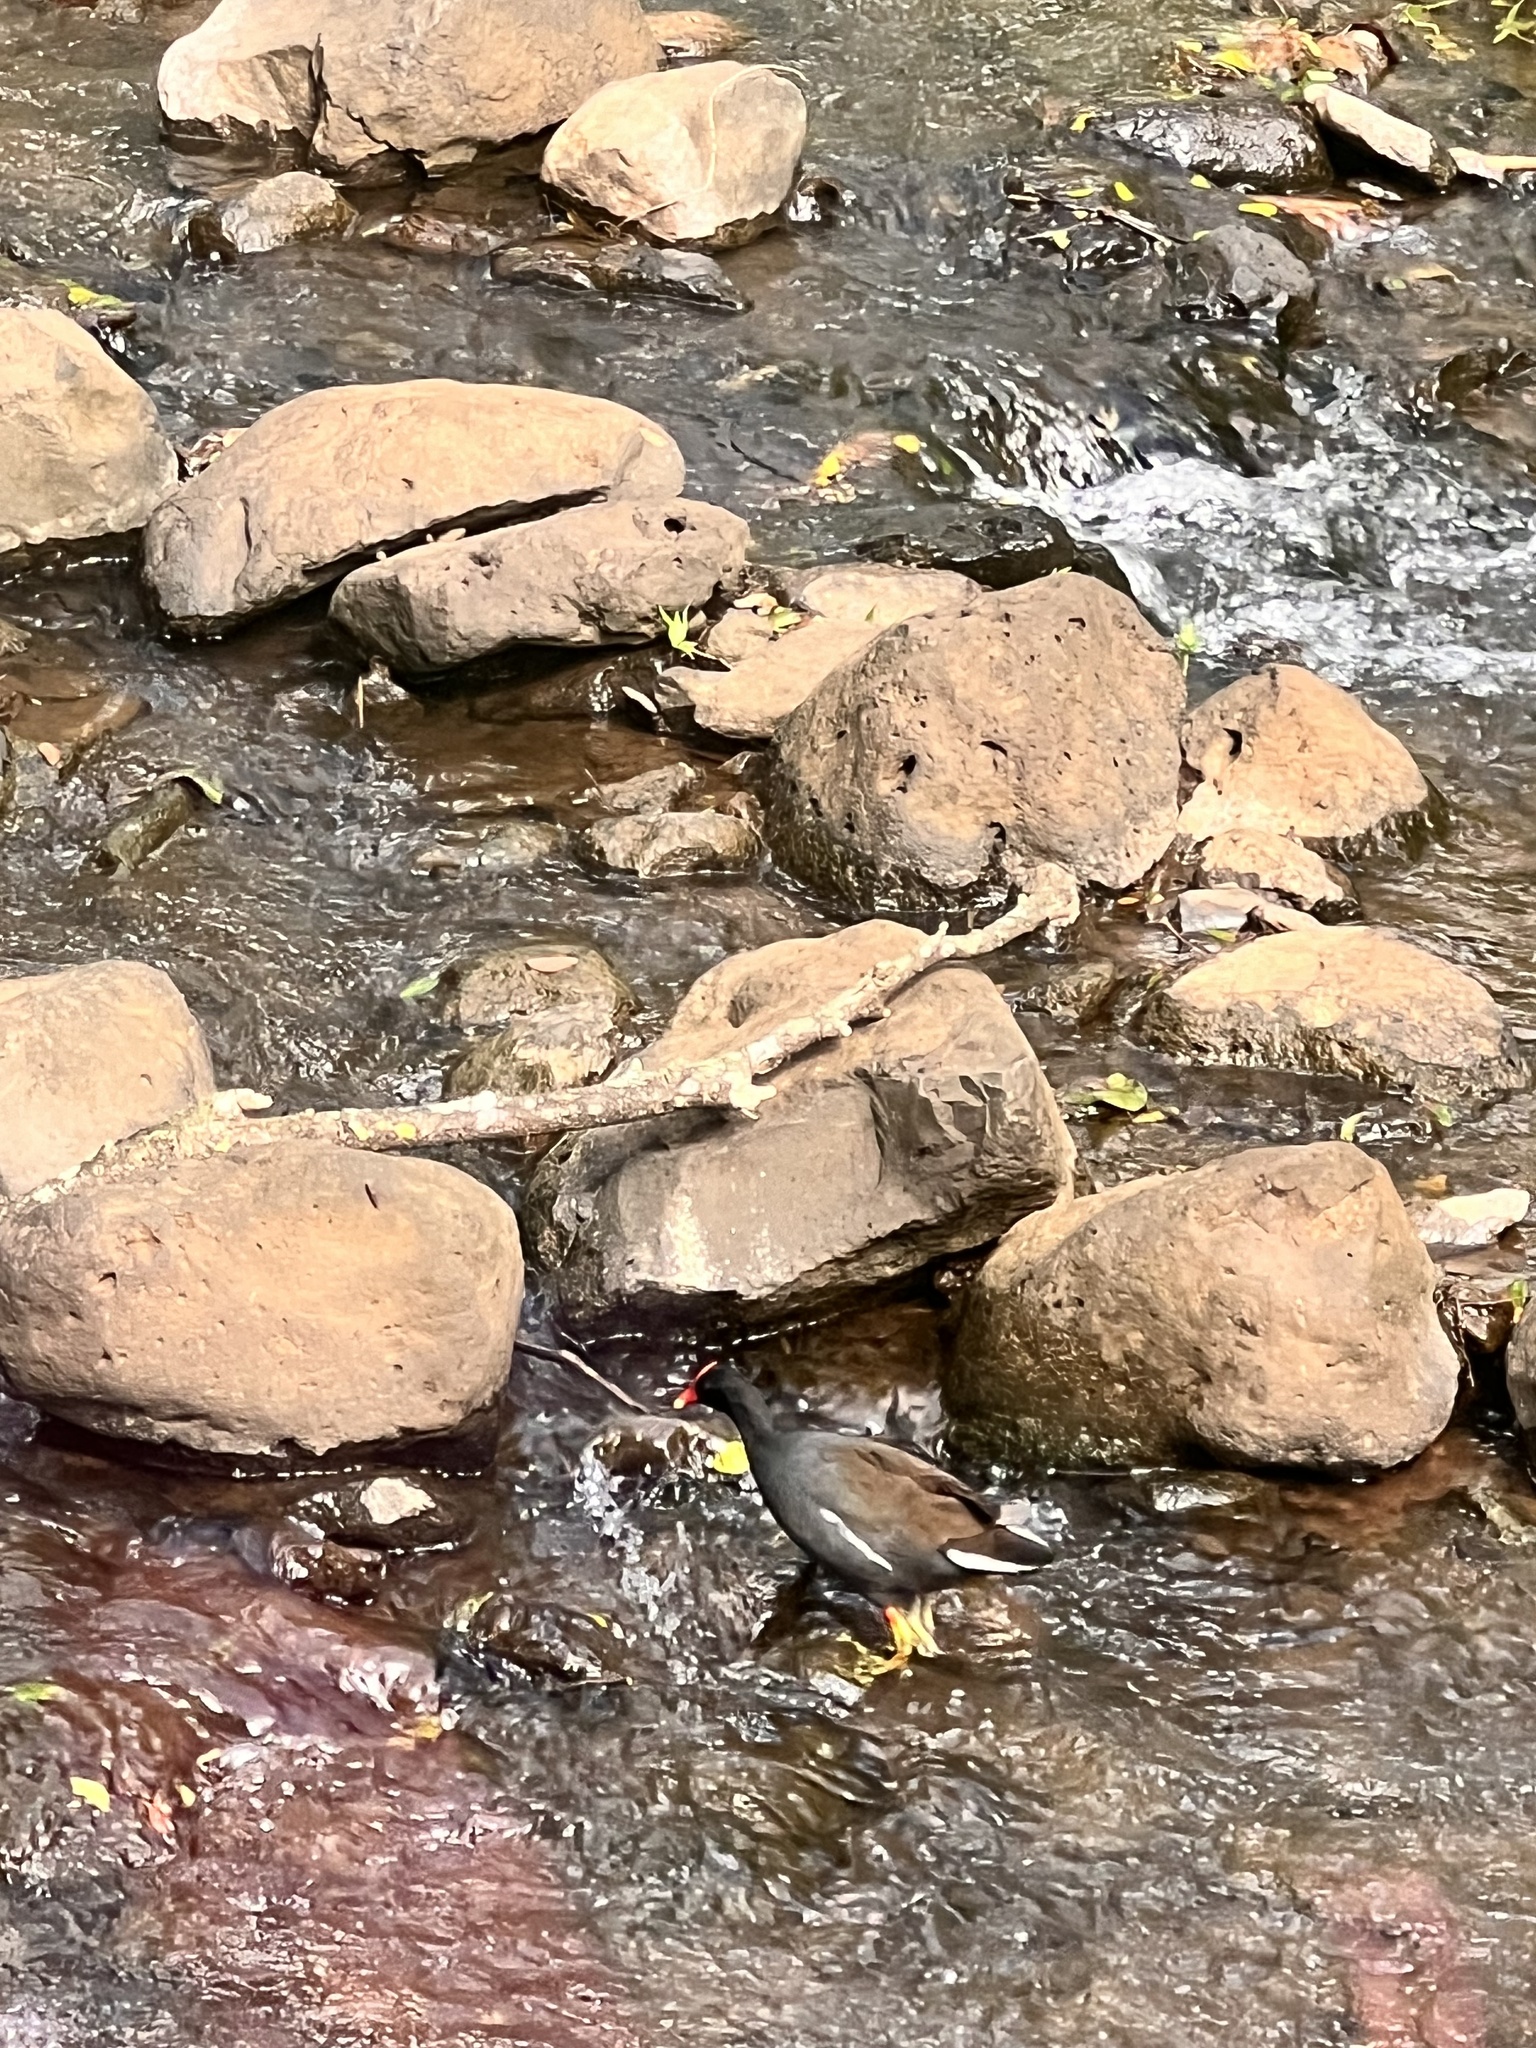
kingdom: Animalia
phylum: Chordata
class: Aves
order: Gruiformes
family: Rallidae
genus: Gallinula
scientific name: Gallinula chloropus
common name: Common moorhen
